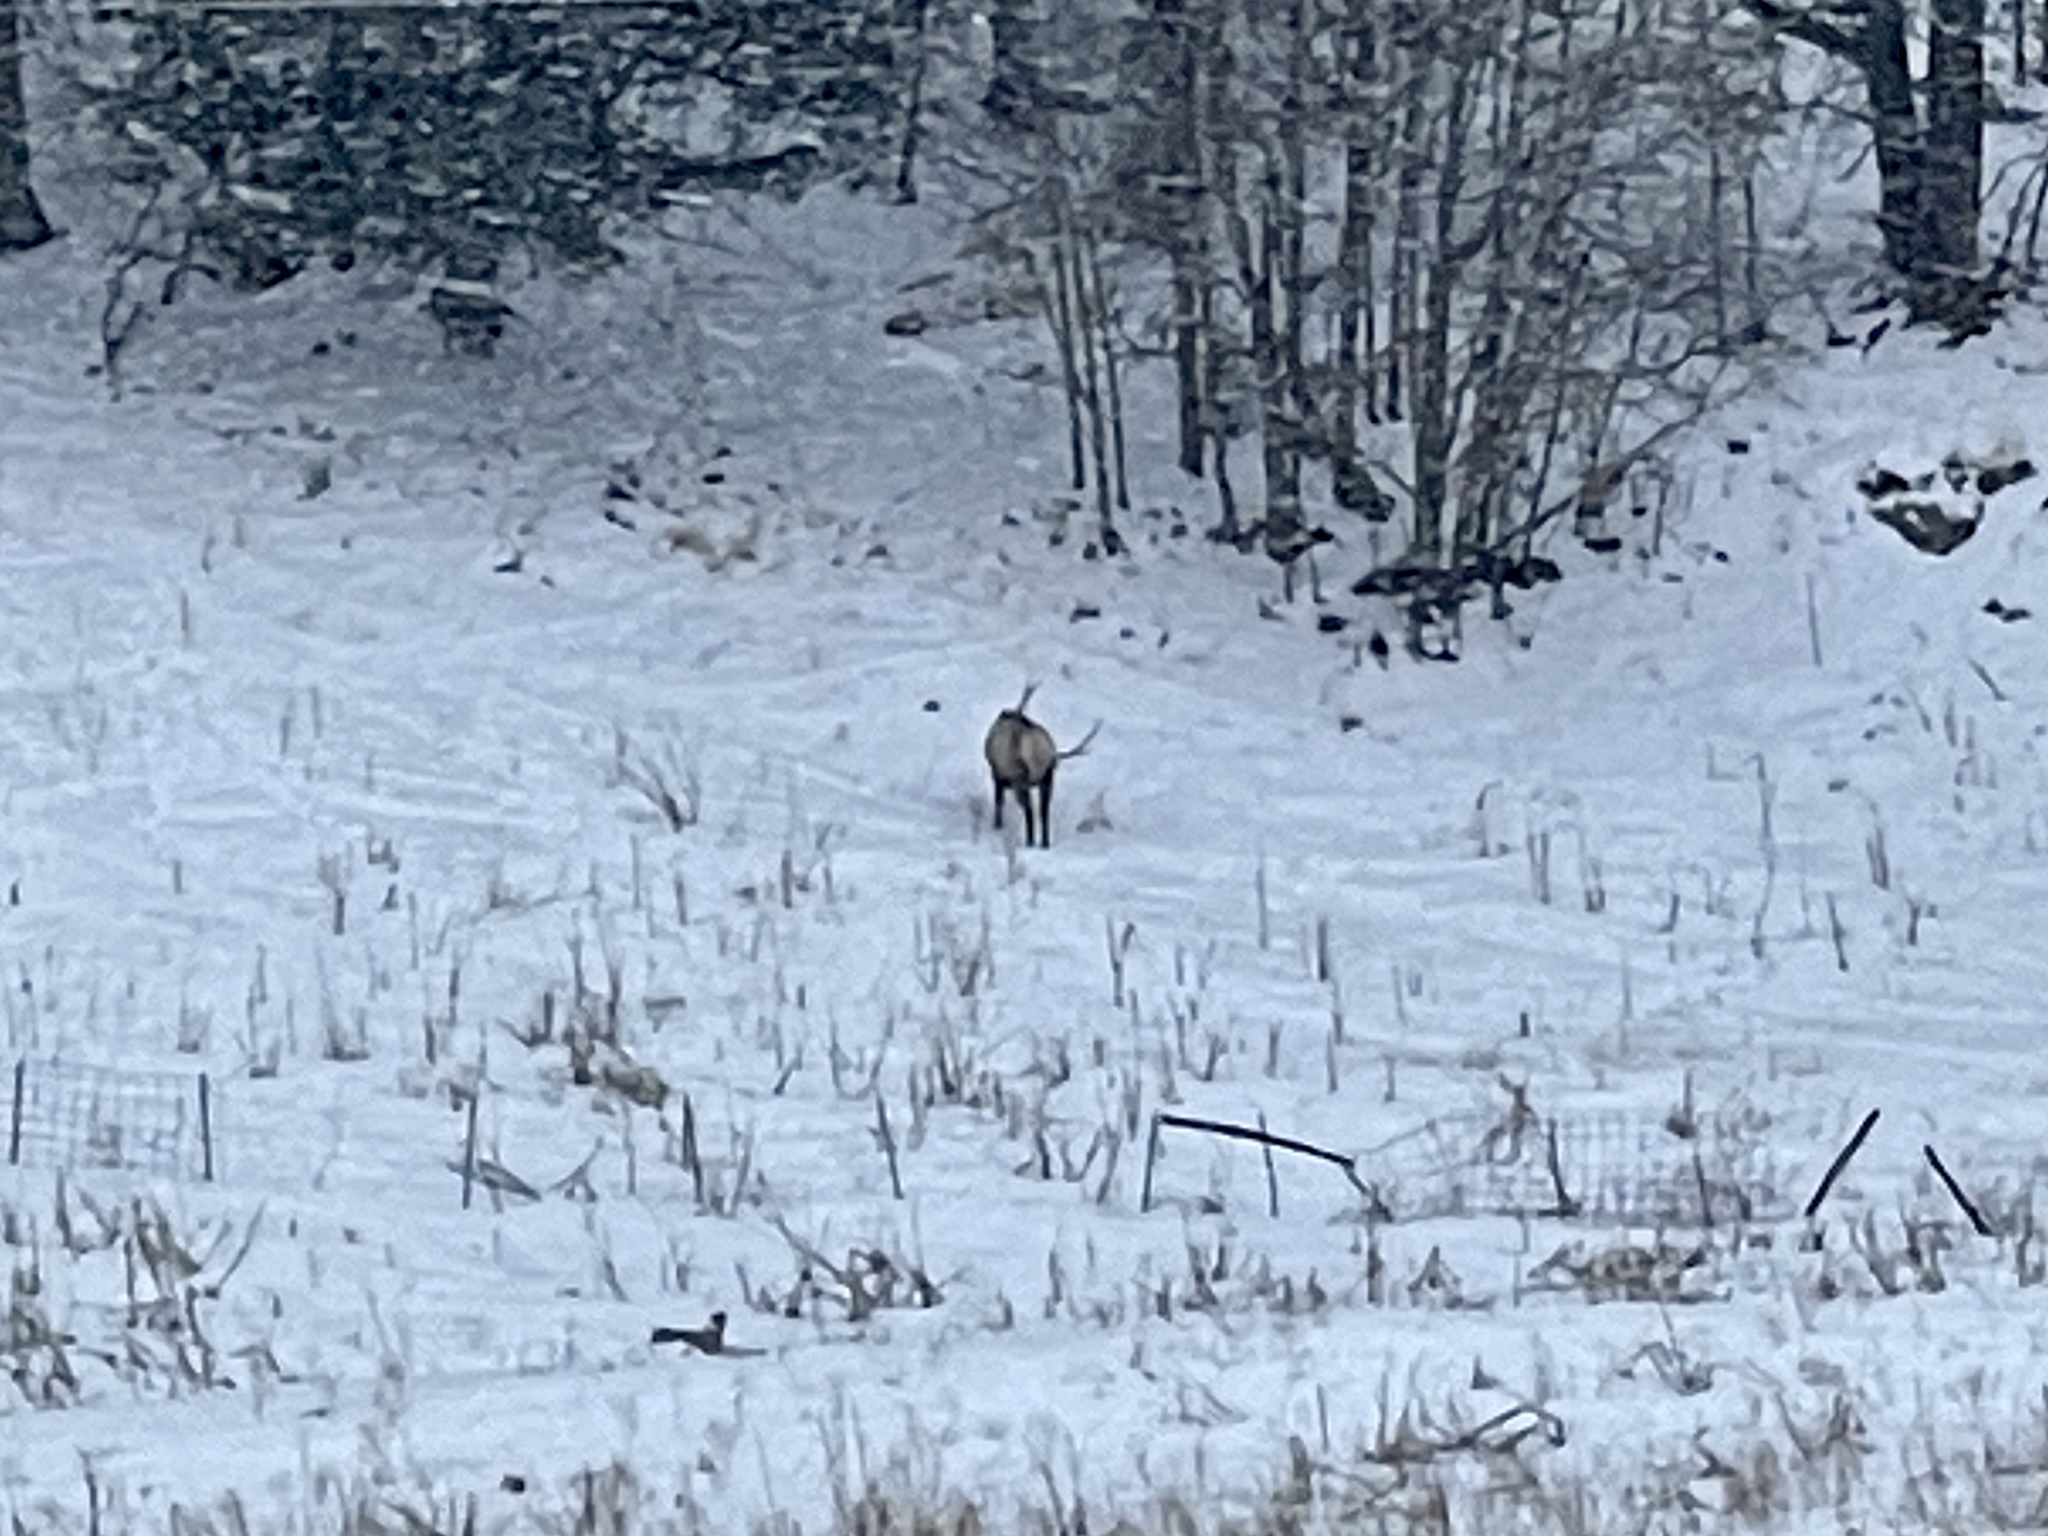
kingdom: Animalia
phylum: Chordata
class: Mammalia
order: Artiodactyla
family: Cervidae
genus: Cervus
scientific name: Cervus elaphus
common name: Red deer
